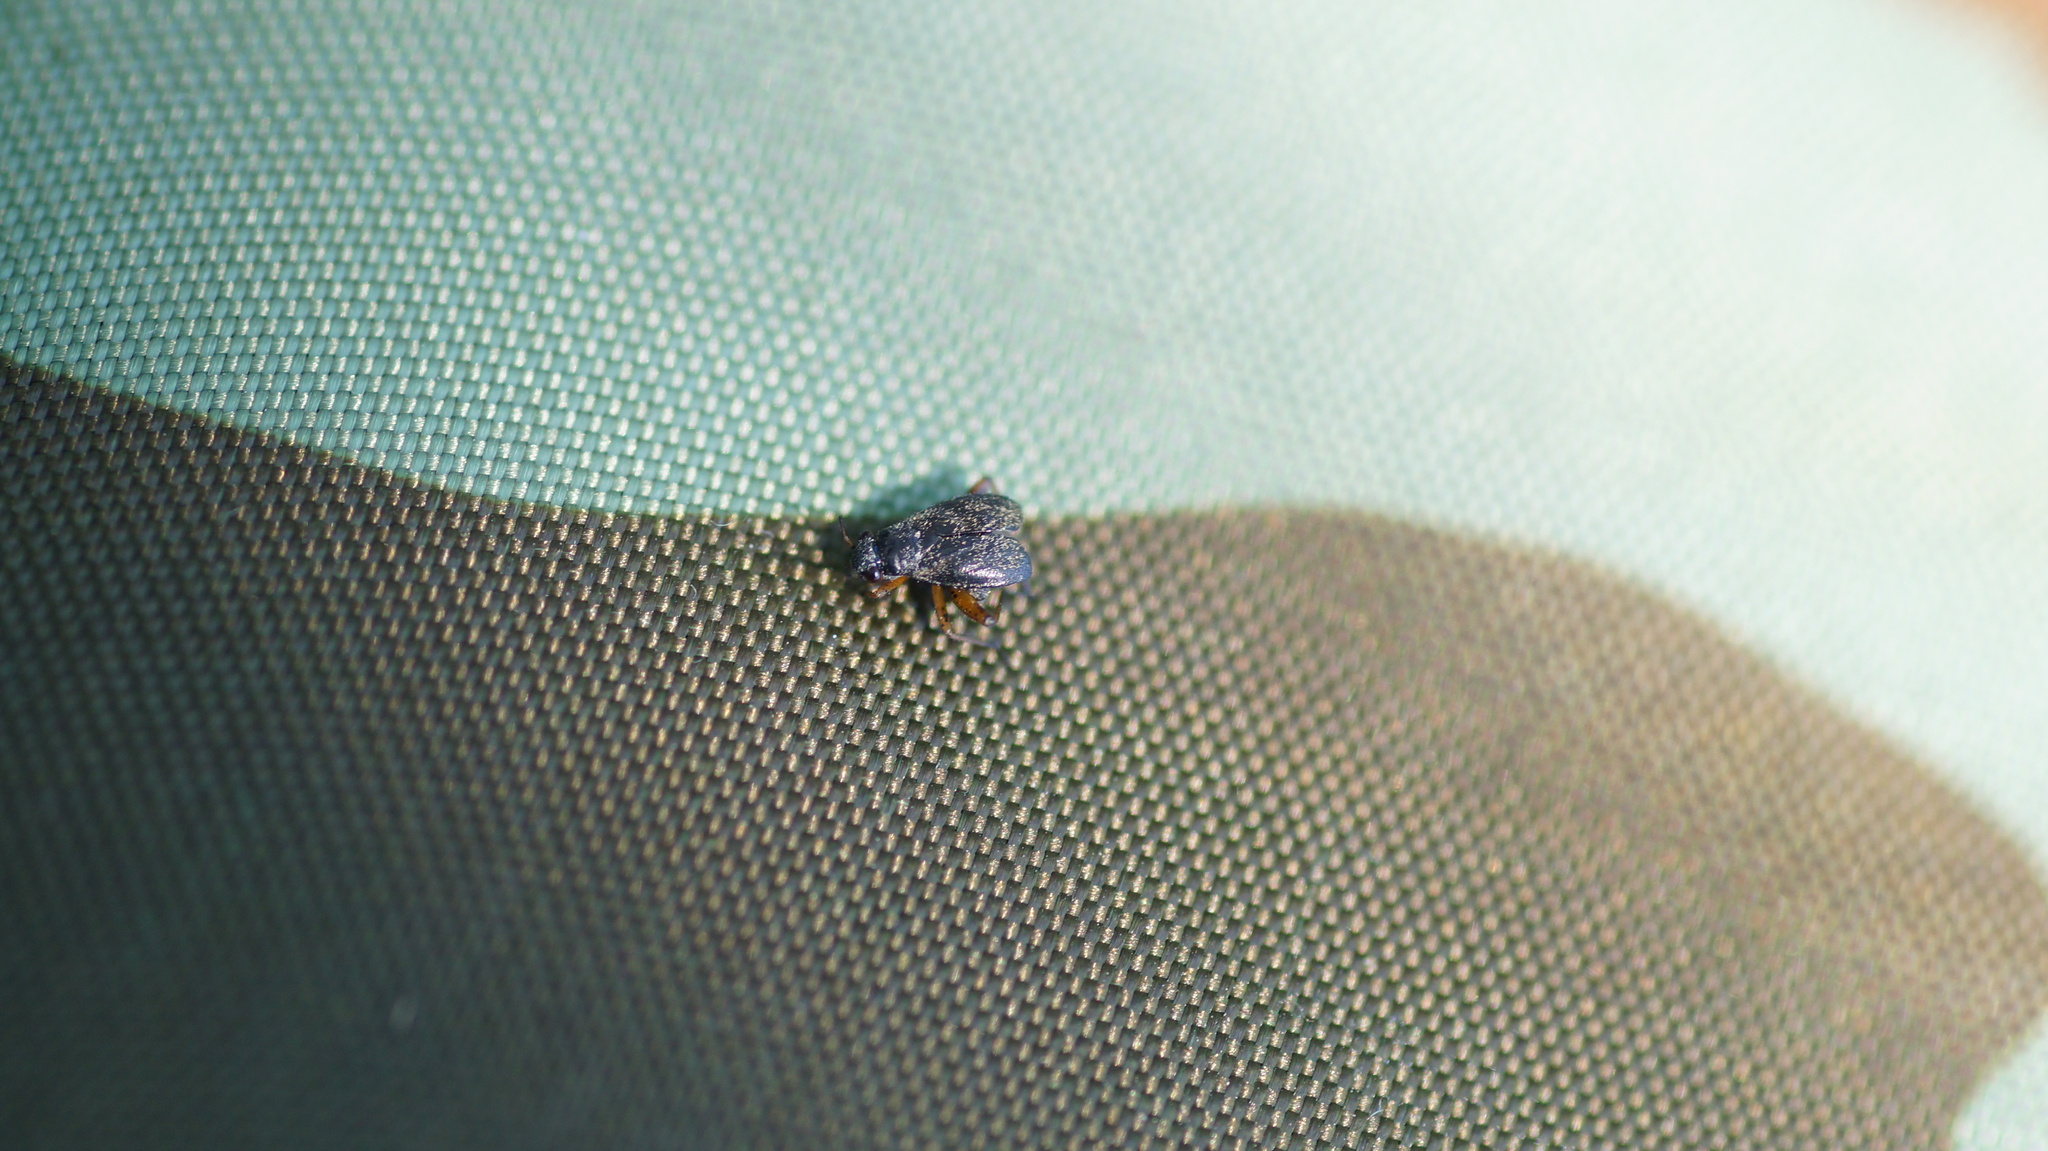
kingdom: Animalia
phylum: Arthropoda
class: Insecta
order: Hemiptera
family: Miridae
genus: Orthocephalus
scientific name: Orthocephalus
